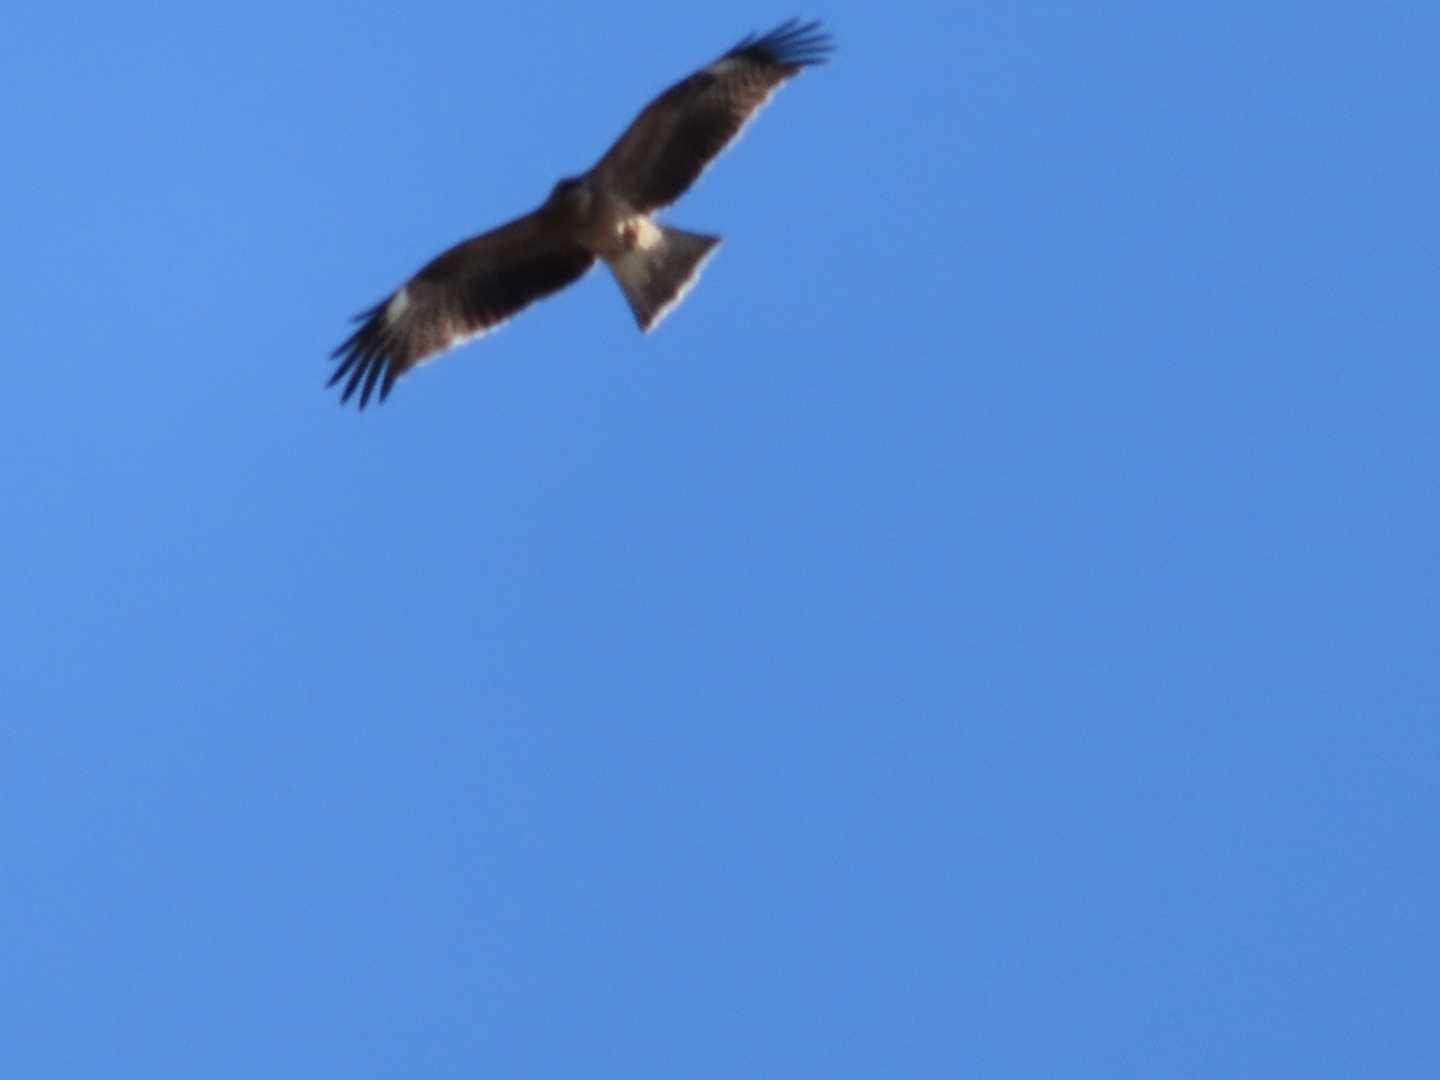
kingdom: Animalia
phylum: Chordata
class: Aves
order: Accipitriformes
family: Accipitridae
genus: Milvus
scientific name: Milvus migrans
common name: Black kite
